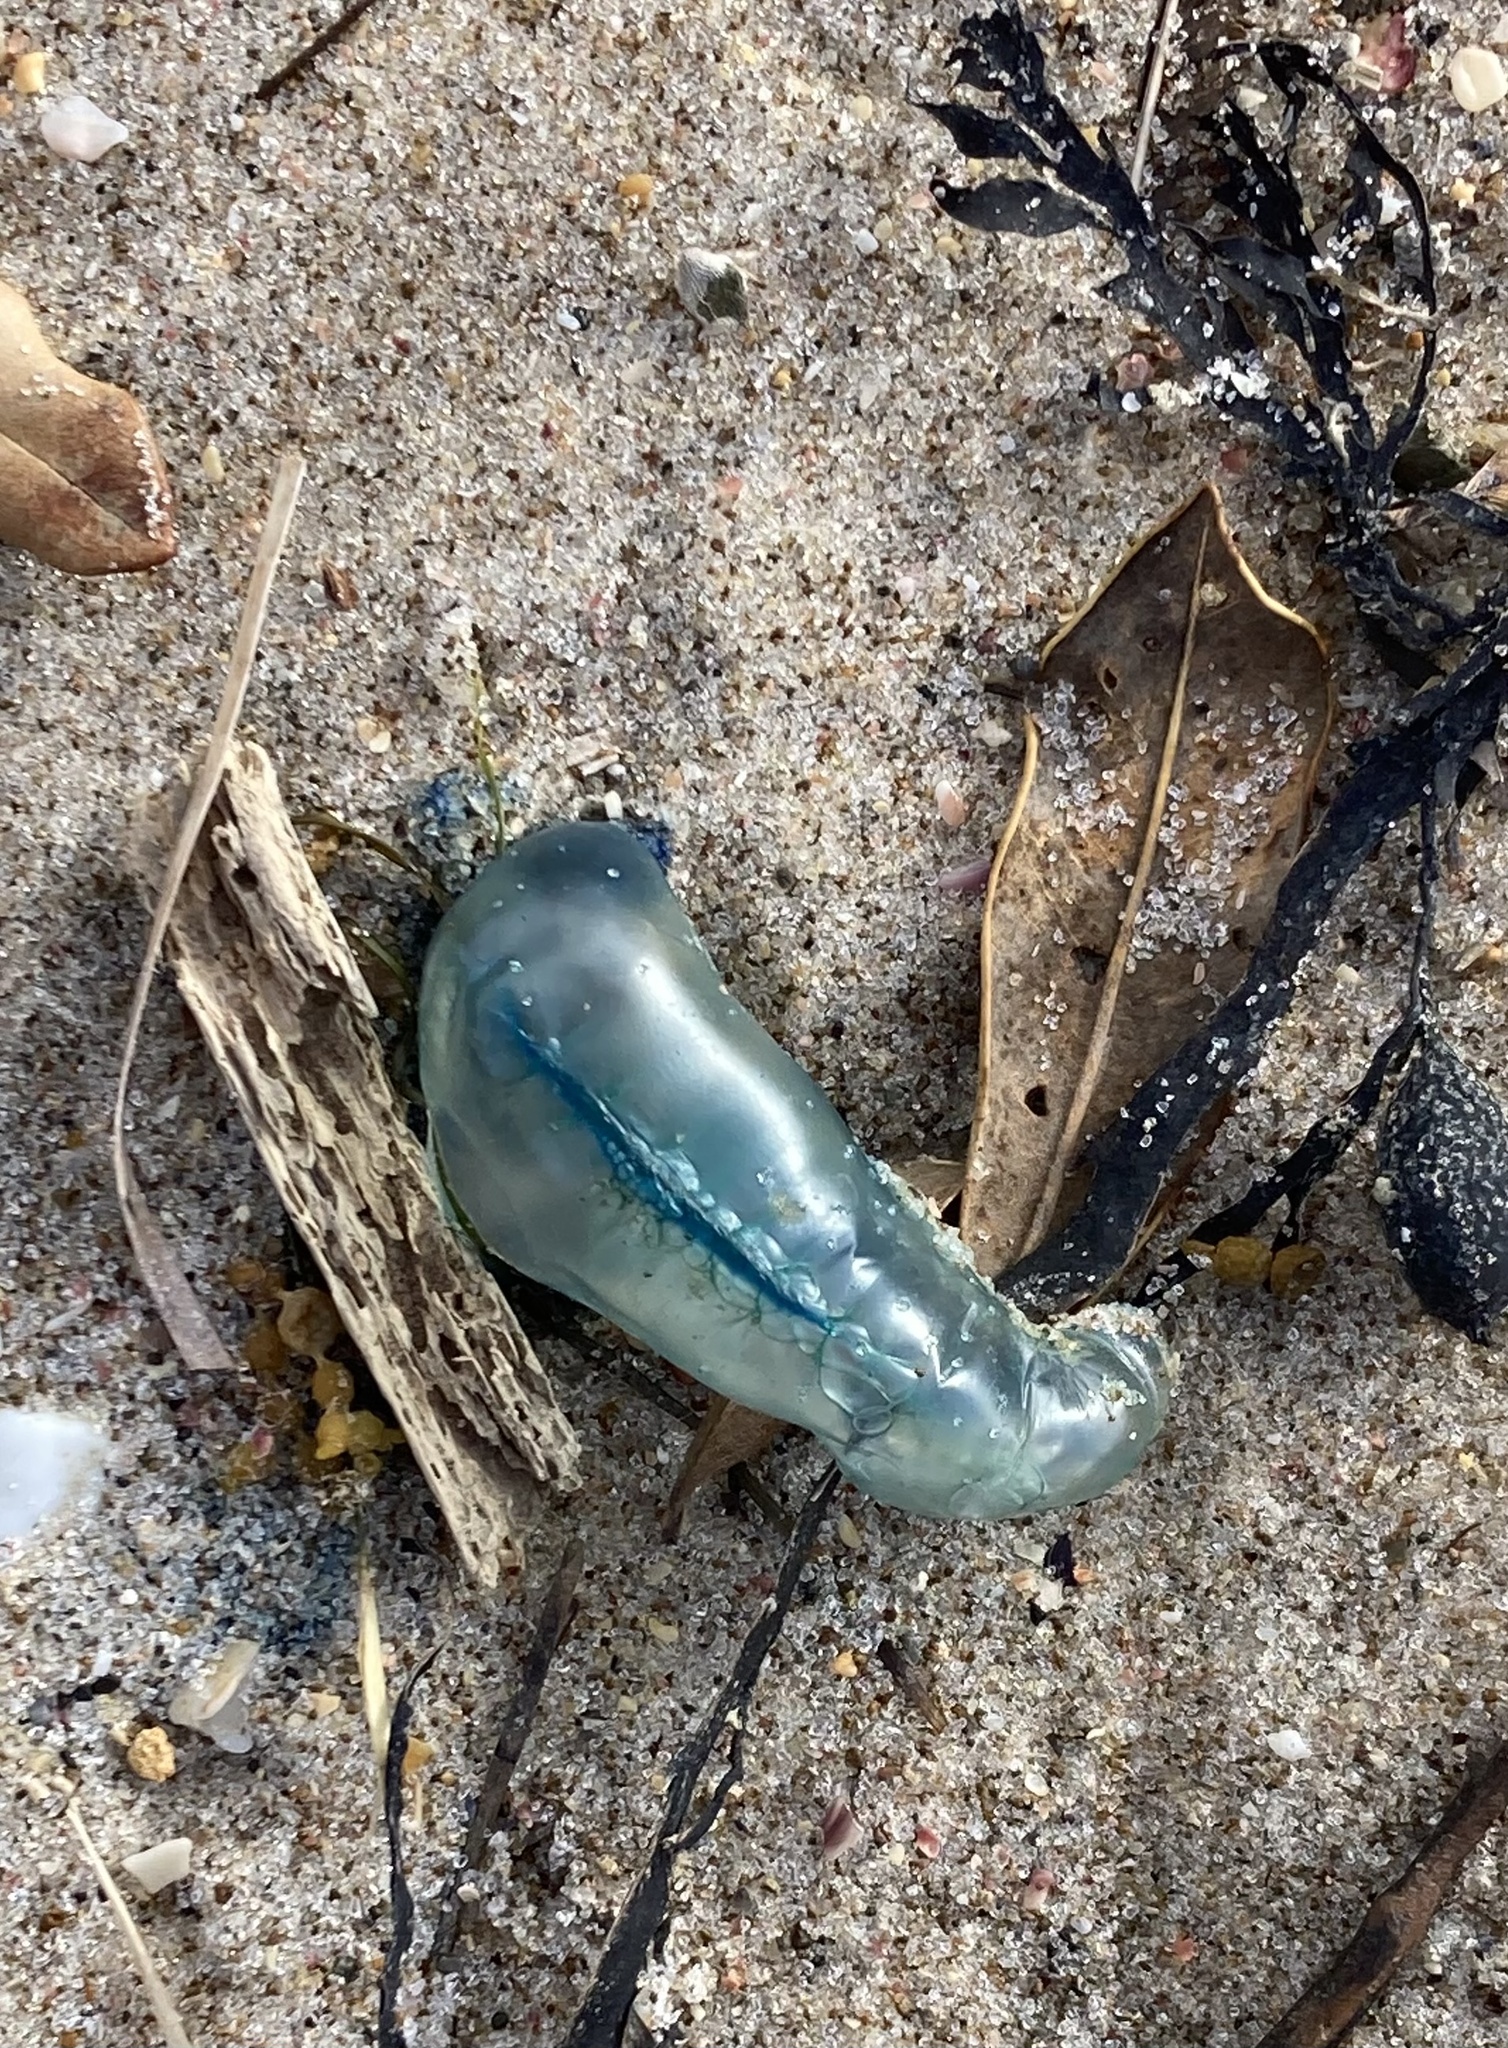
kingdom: Animalia
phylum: Cnidaria
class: Hydrozoa
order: Siphonophorae
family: Physaliidae
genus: Physalia
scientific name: Physalia physalis
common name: Portuguese man-of-war
